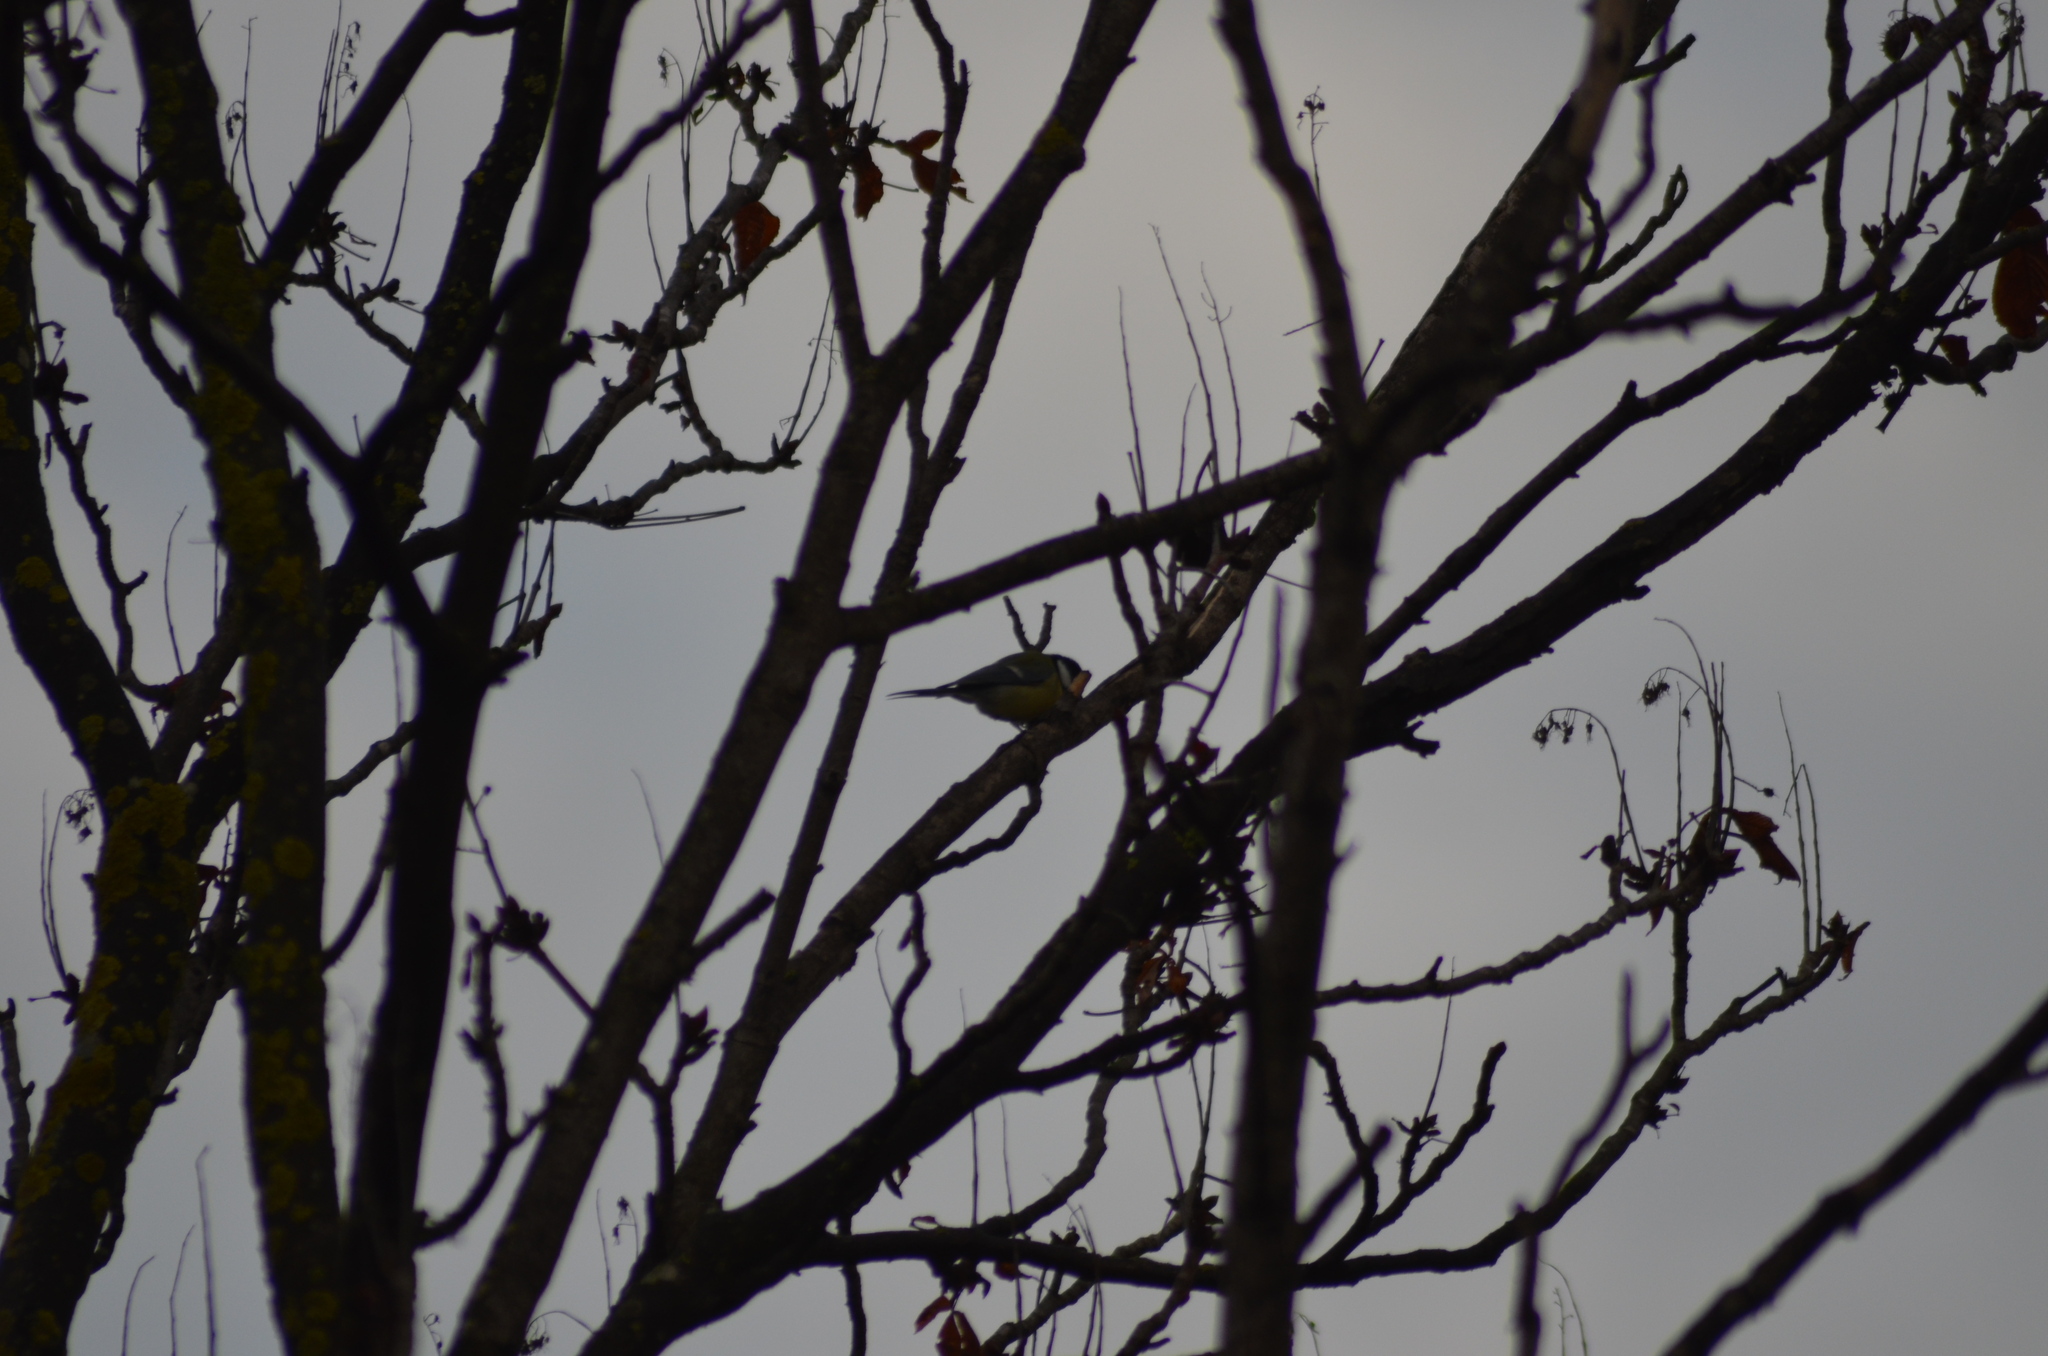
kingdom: Animalia
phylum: Chordata
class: Aves
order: Passeriformes
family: Paridae
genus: Parus
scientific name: Parus major
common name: Great tit
